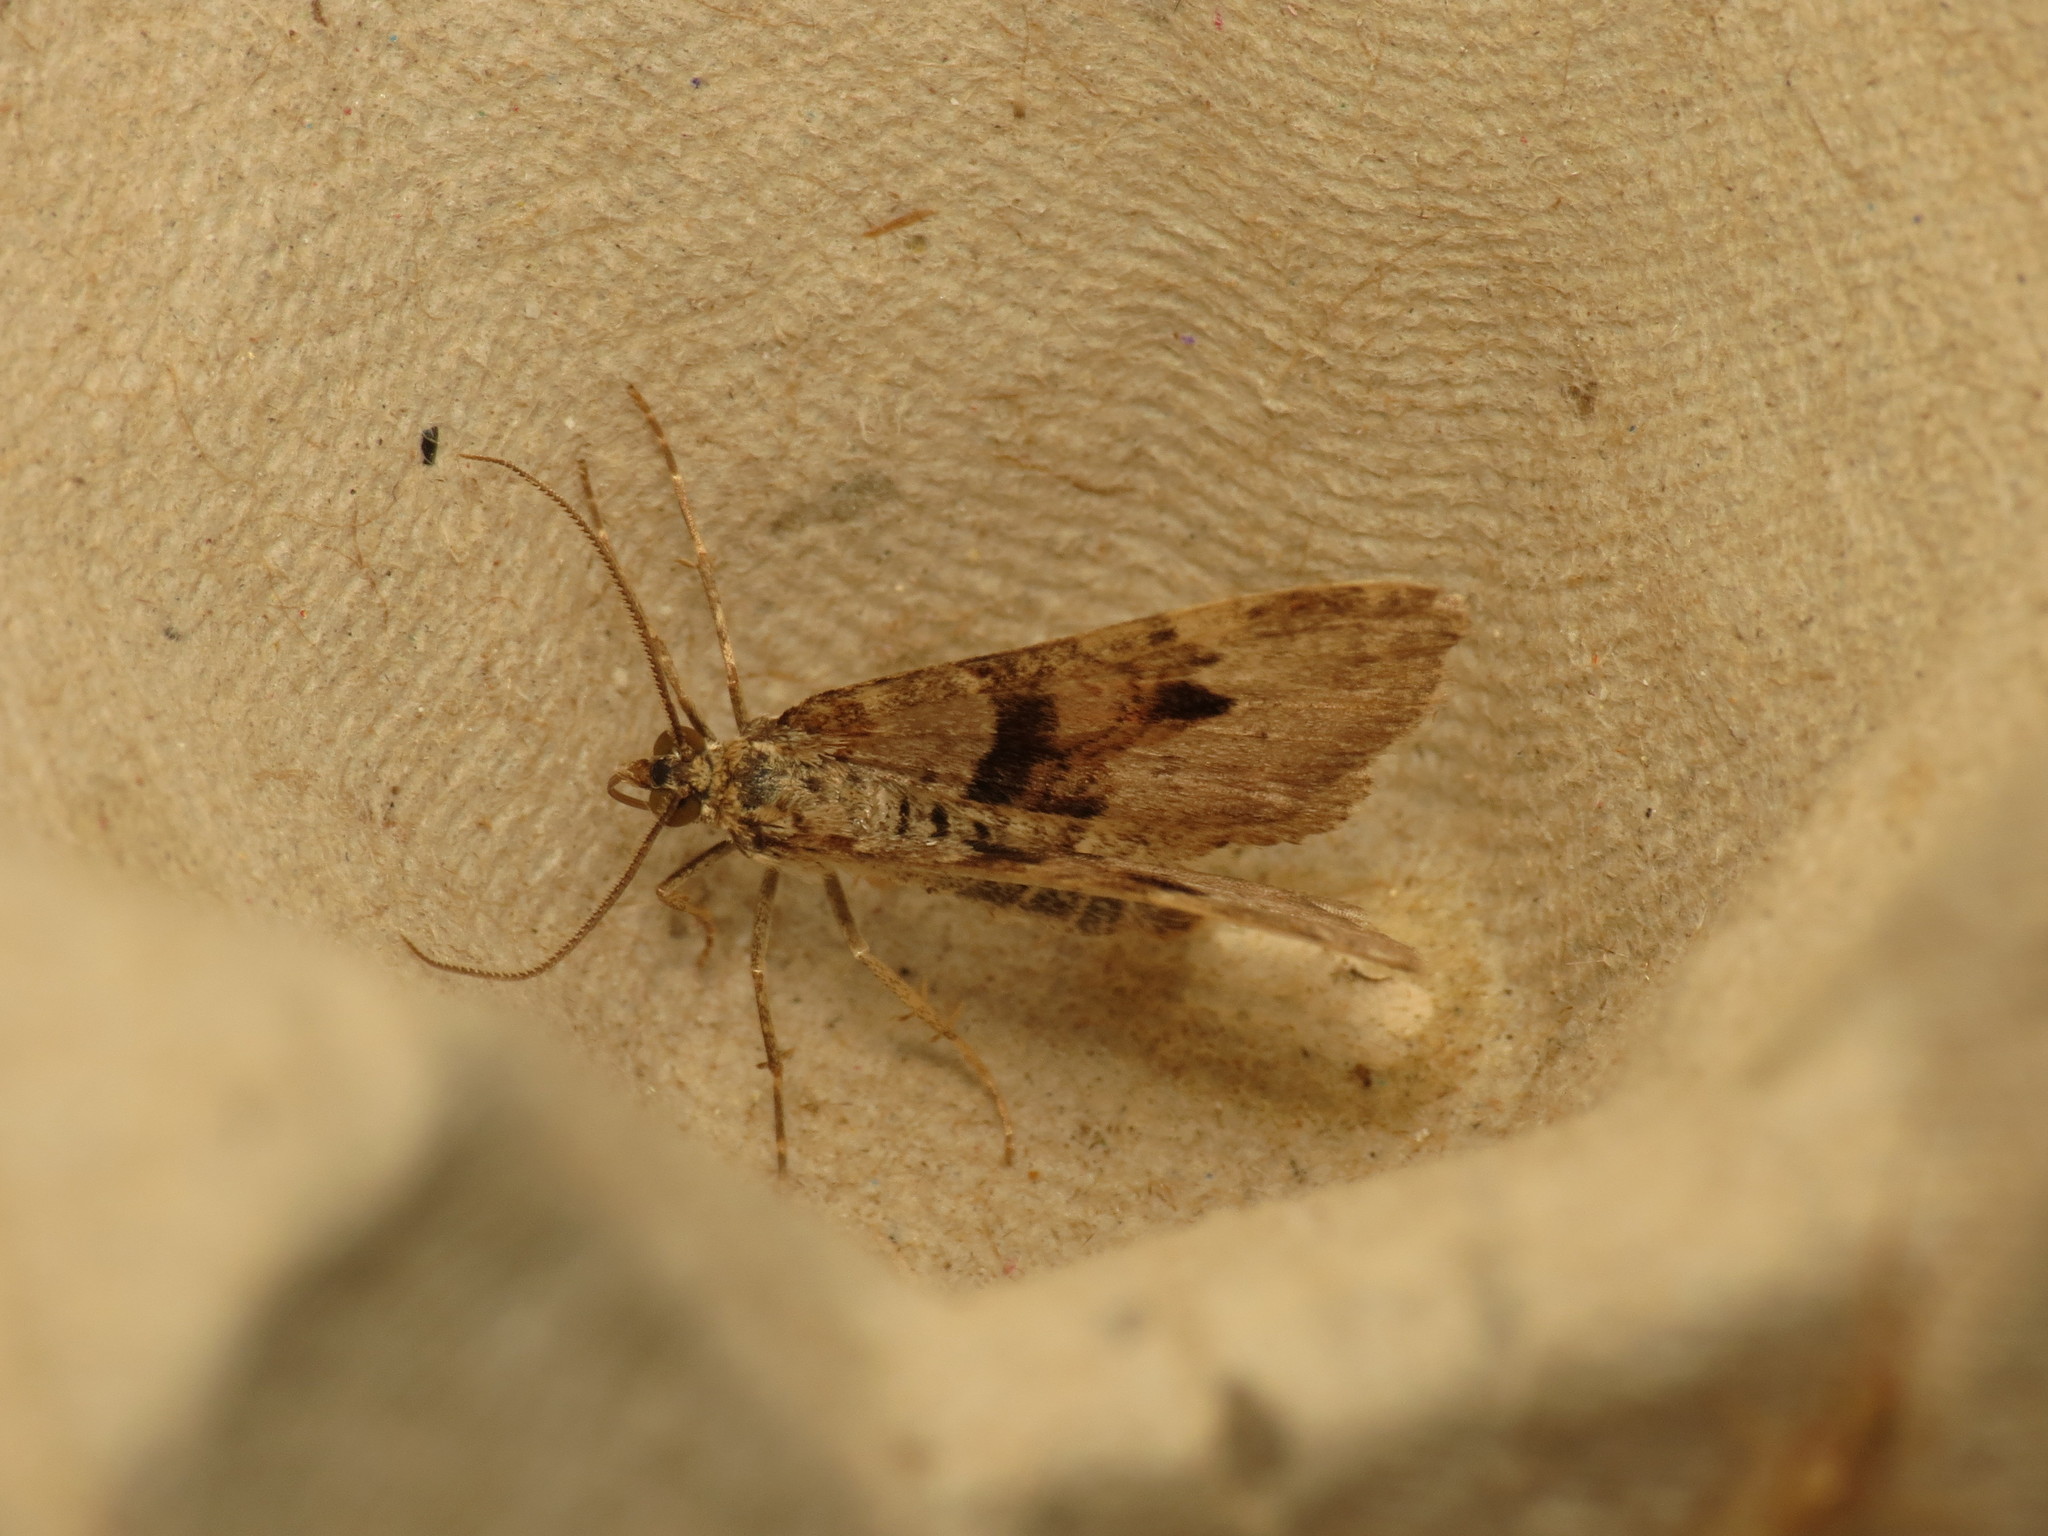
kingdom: Animalia
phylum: Arthropoda
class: Insecta
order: Lepidoptera
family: Geometridae
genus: Xanthorhoe
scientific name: Xanthorhoe designata
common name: Flame carpet
